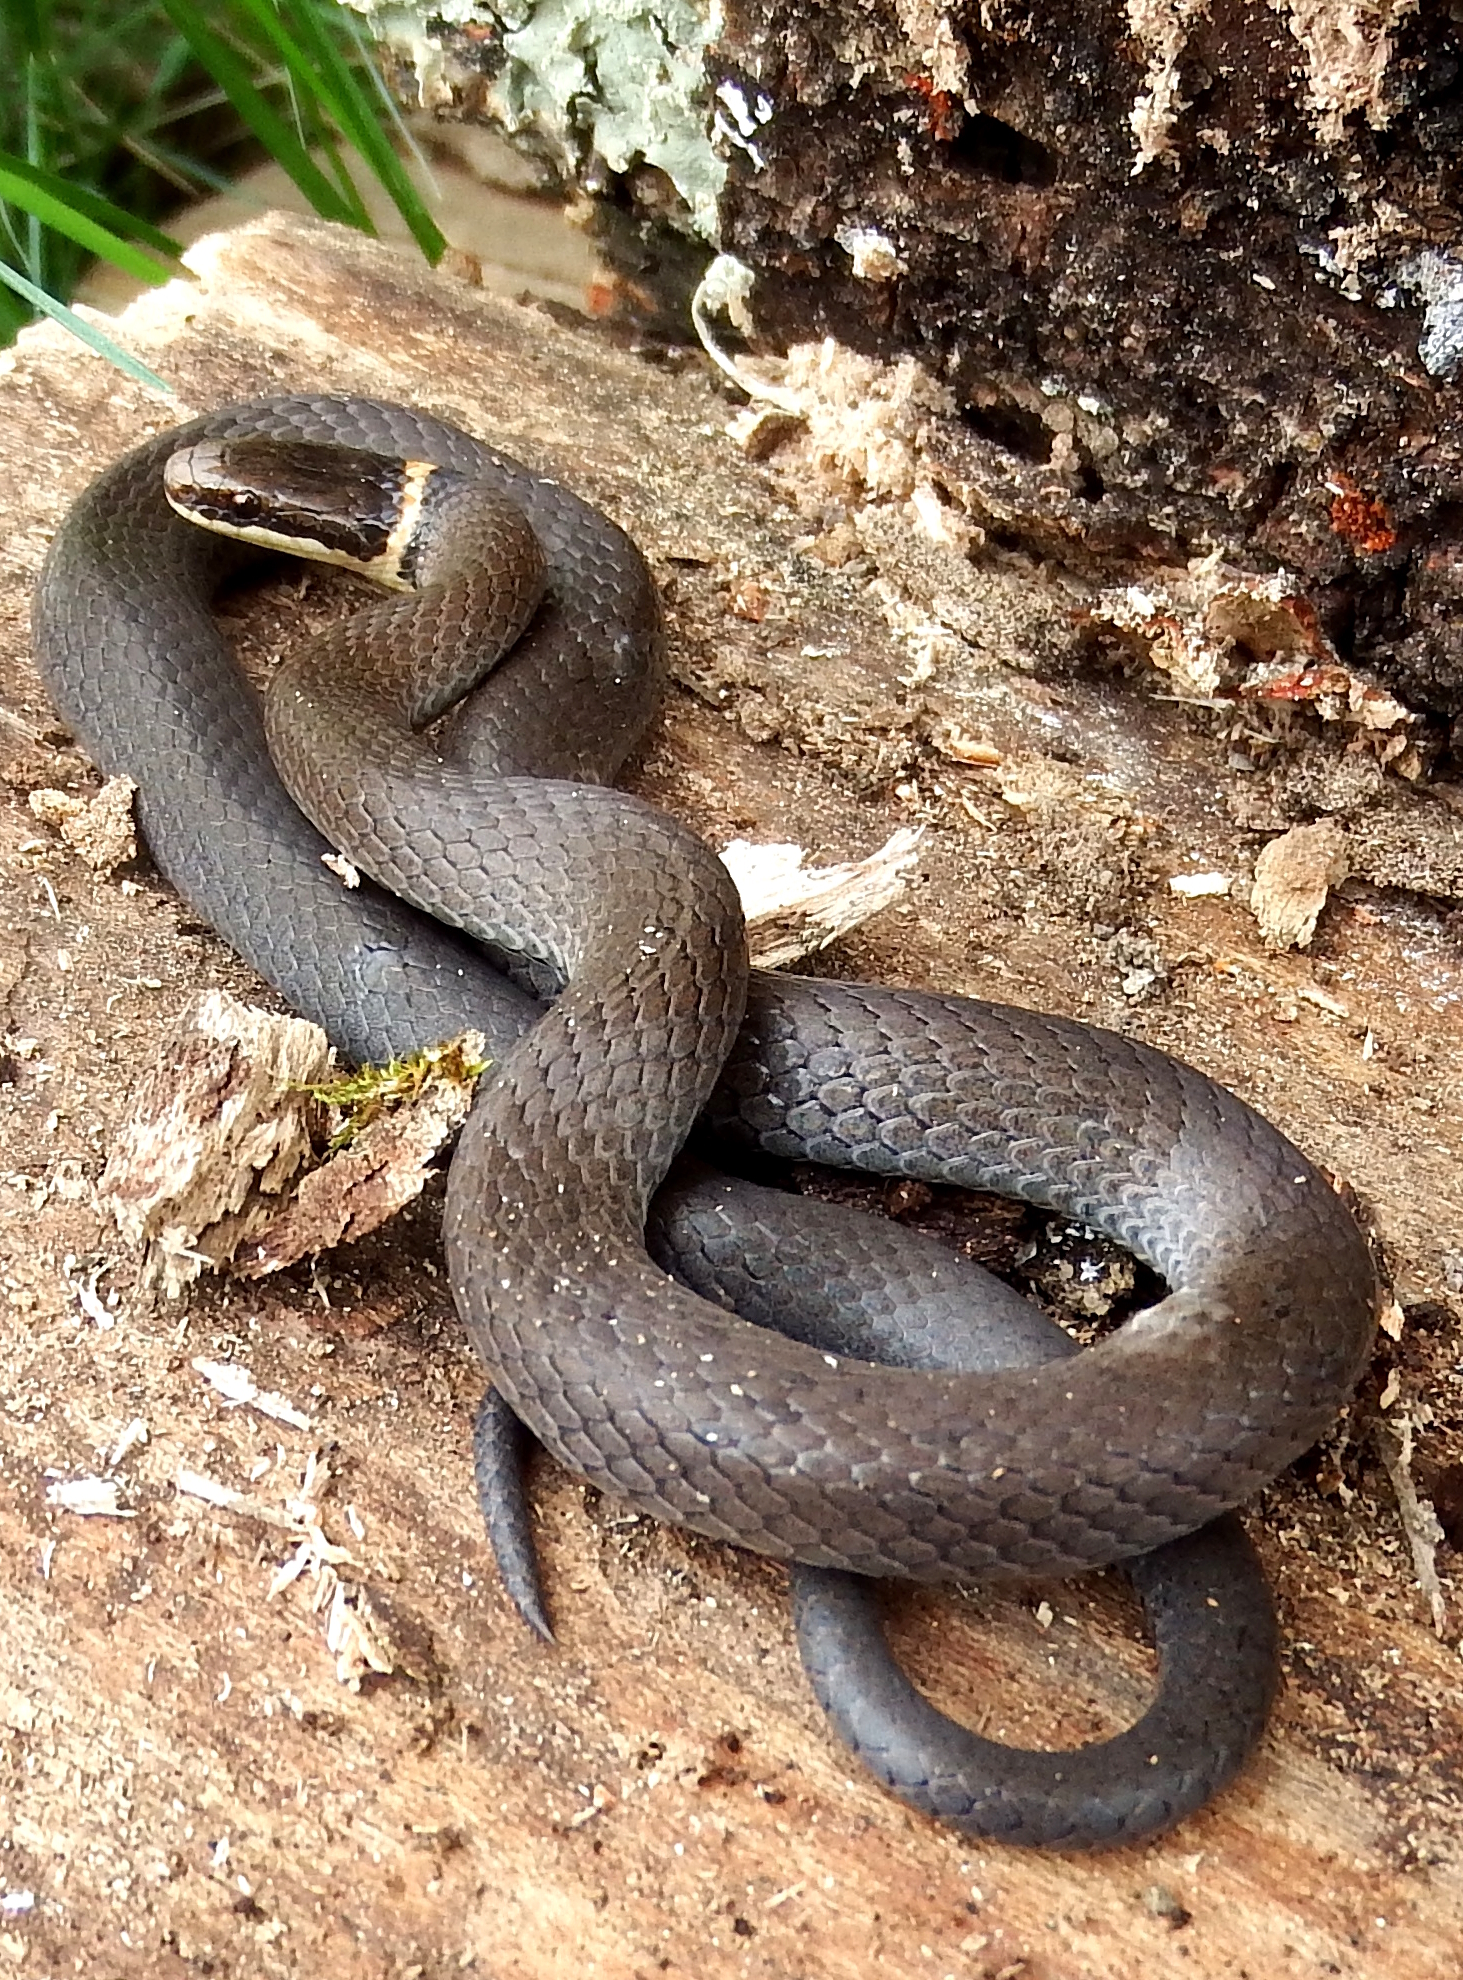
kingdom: Animalia
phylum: Chordata
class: Squamata
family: Colubridae
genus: Diadophis
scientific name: Diadophis punctatus
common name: Ringneck snake
